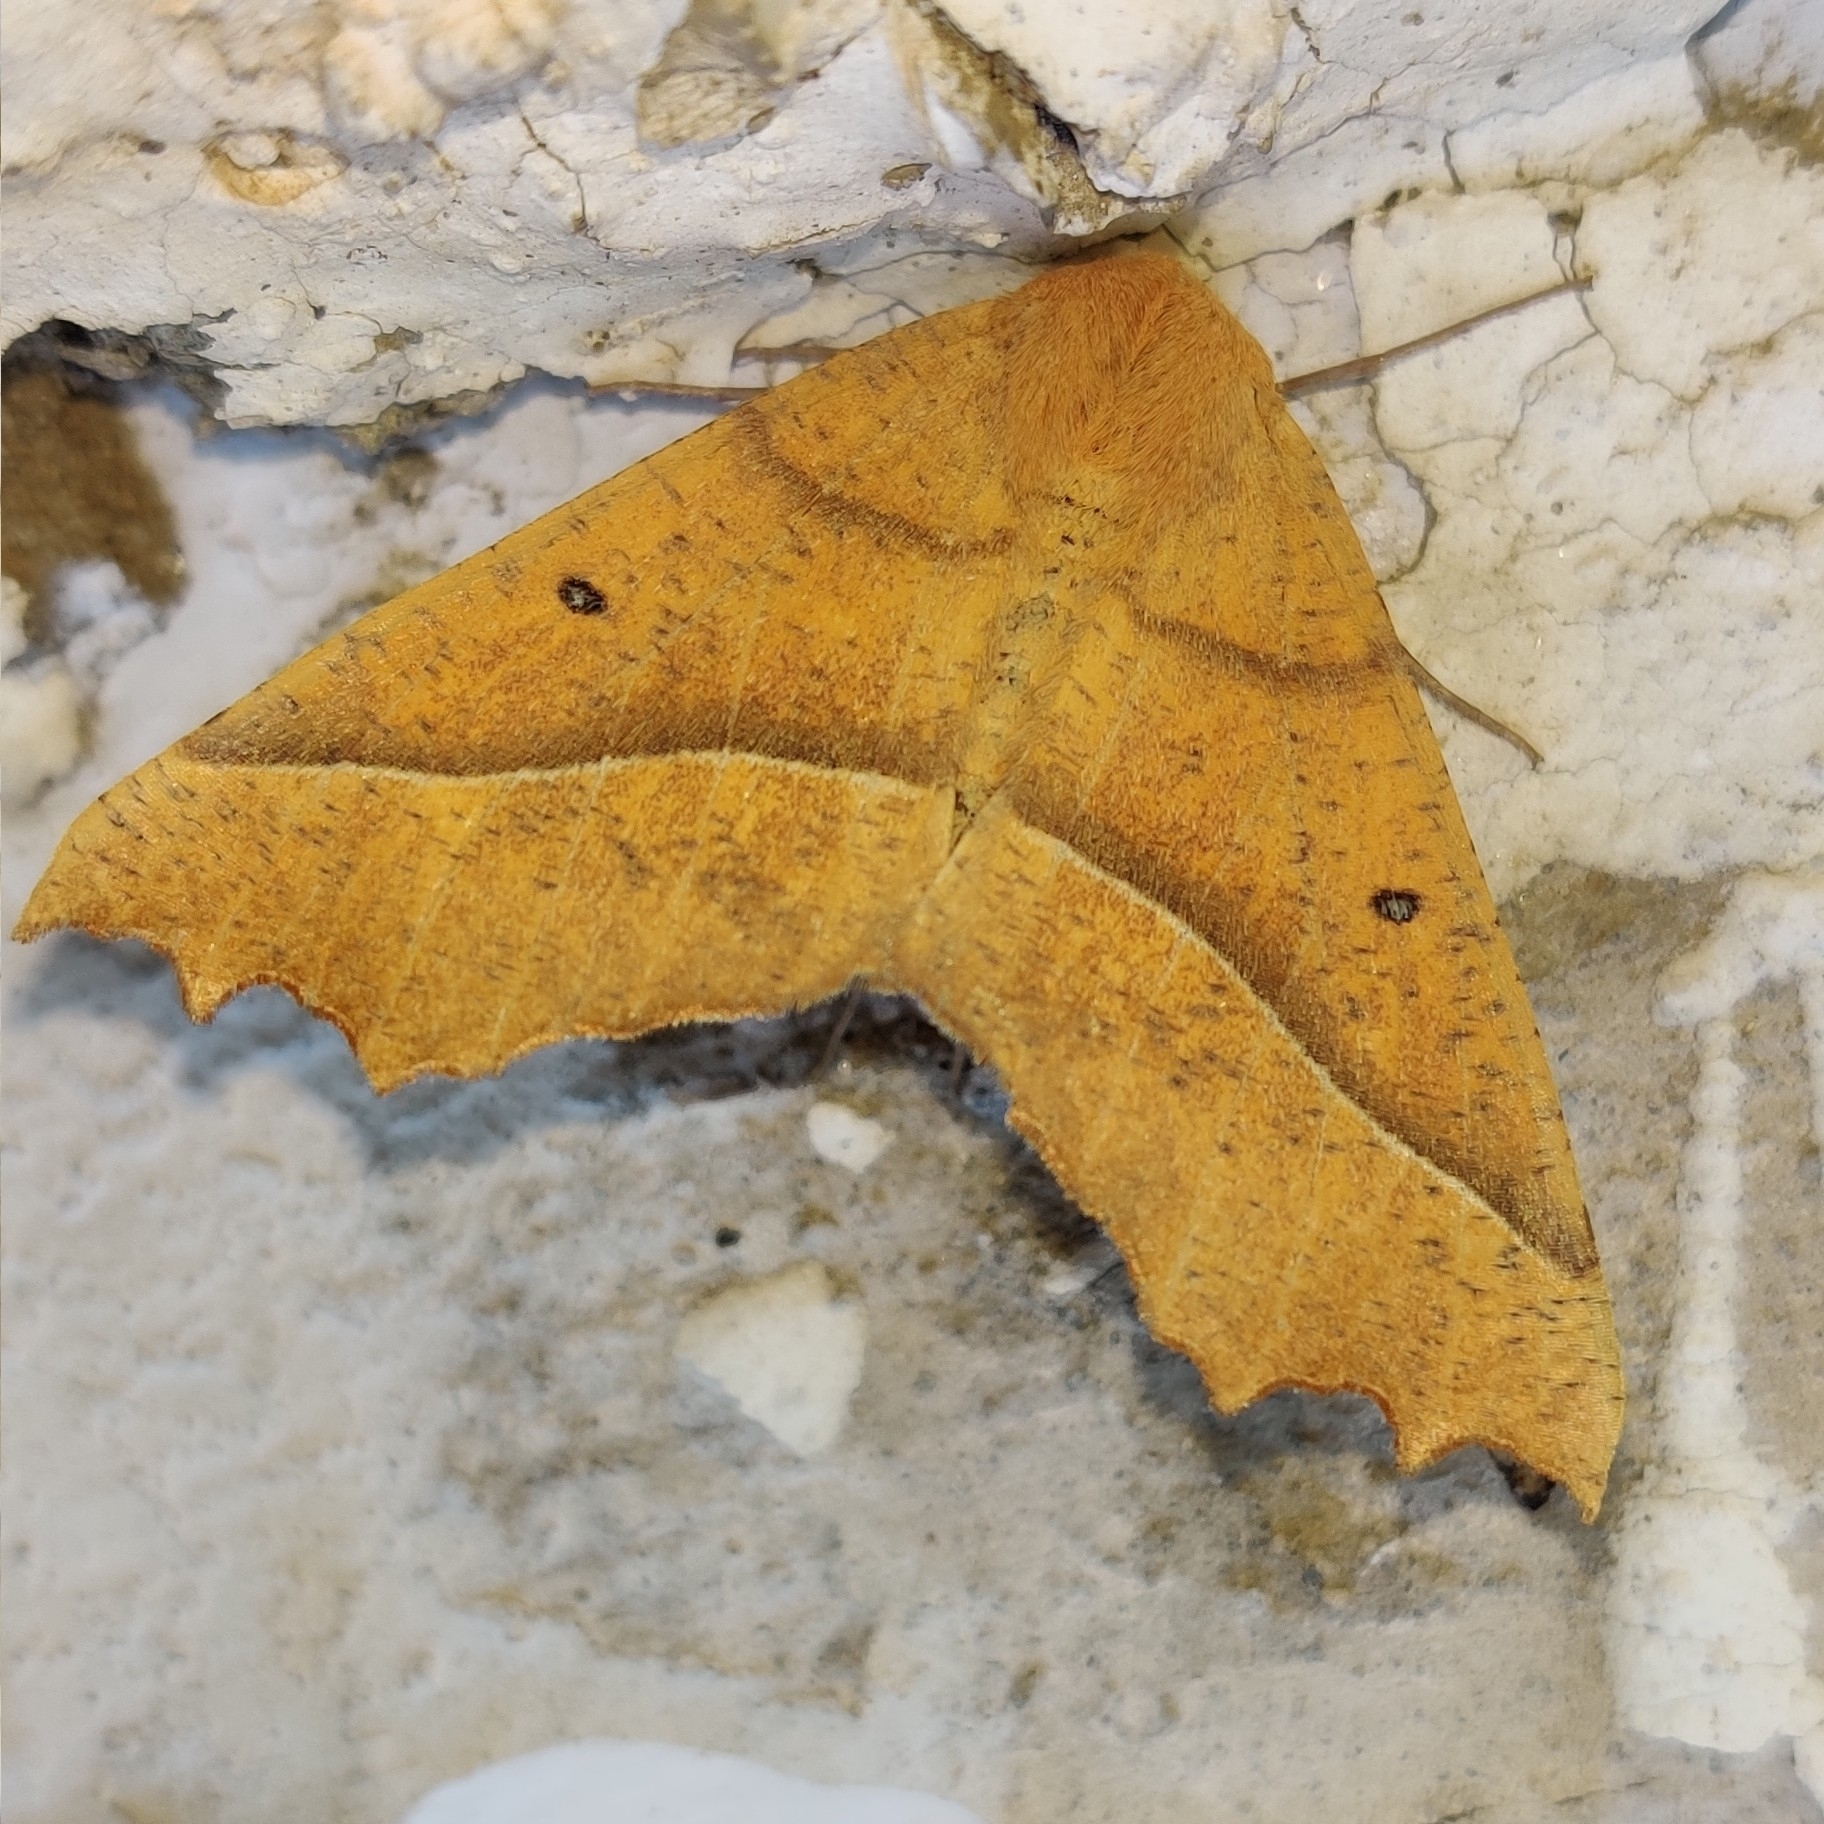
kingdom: Animalia
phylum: Arthropoda
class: Insecta
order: Lepidoptera
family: Geometridae
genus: Odontopera
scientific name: Odontopera bilinearia
